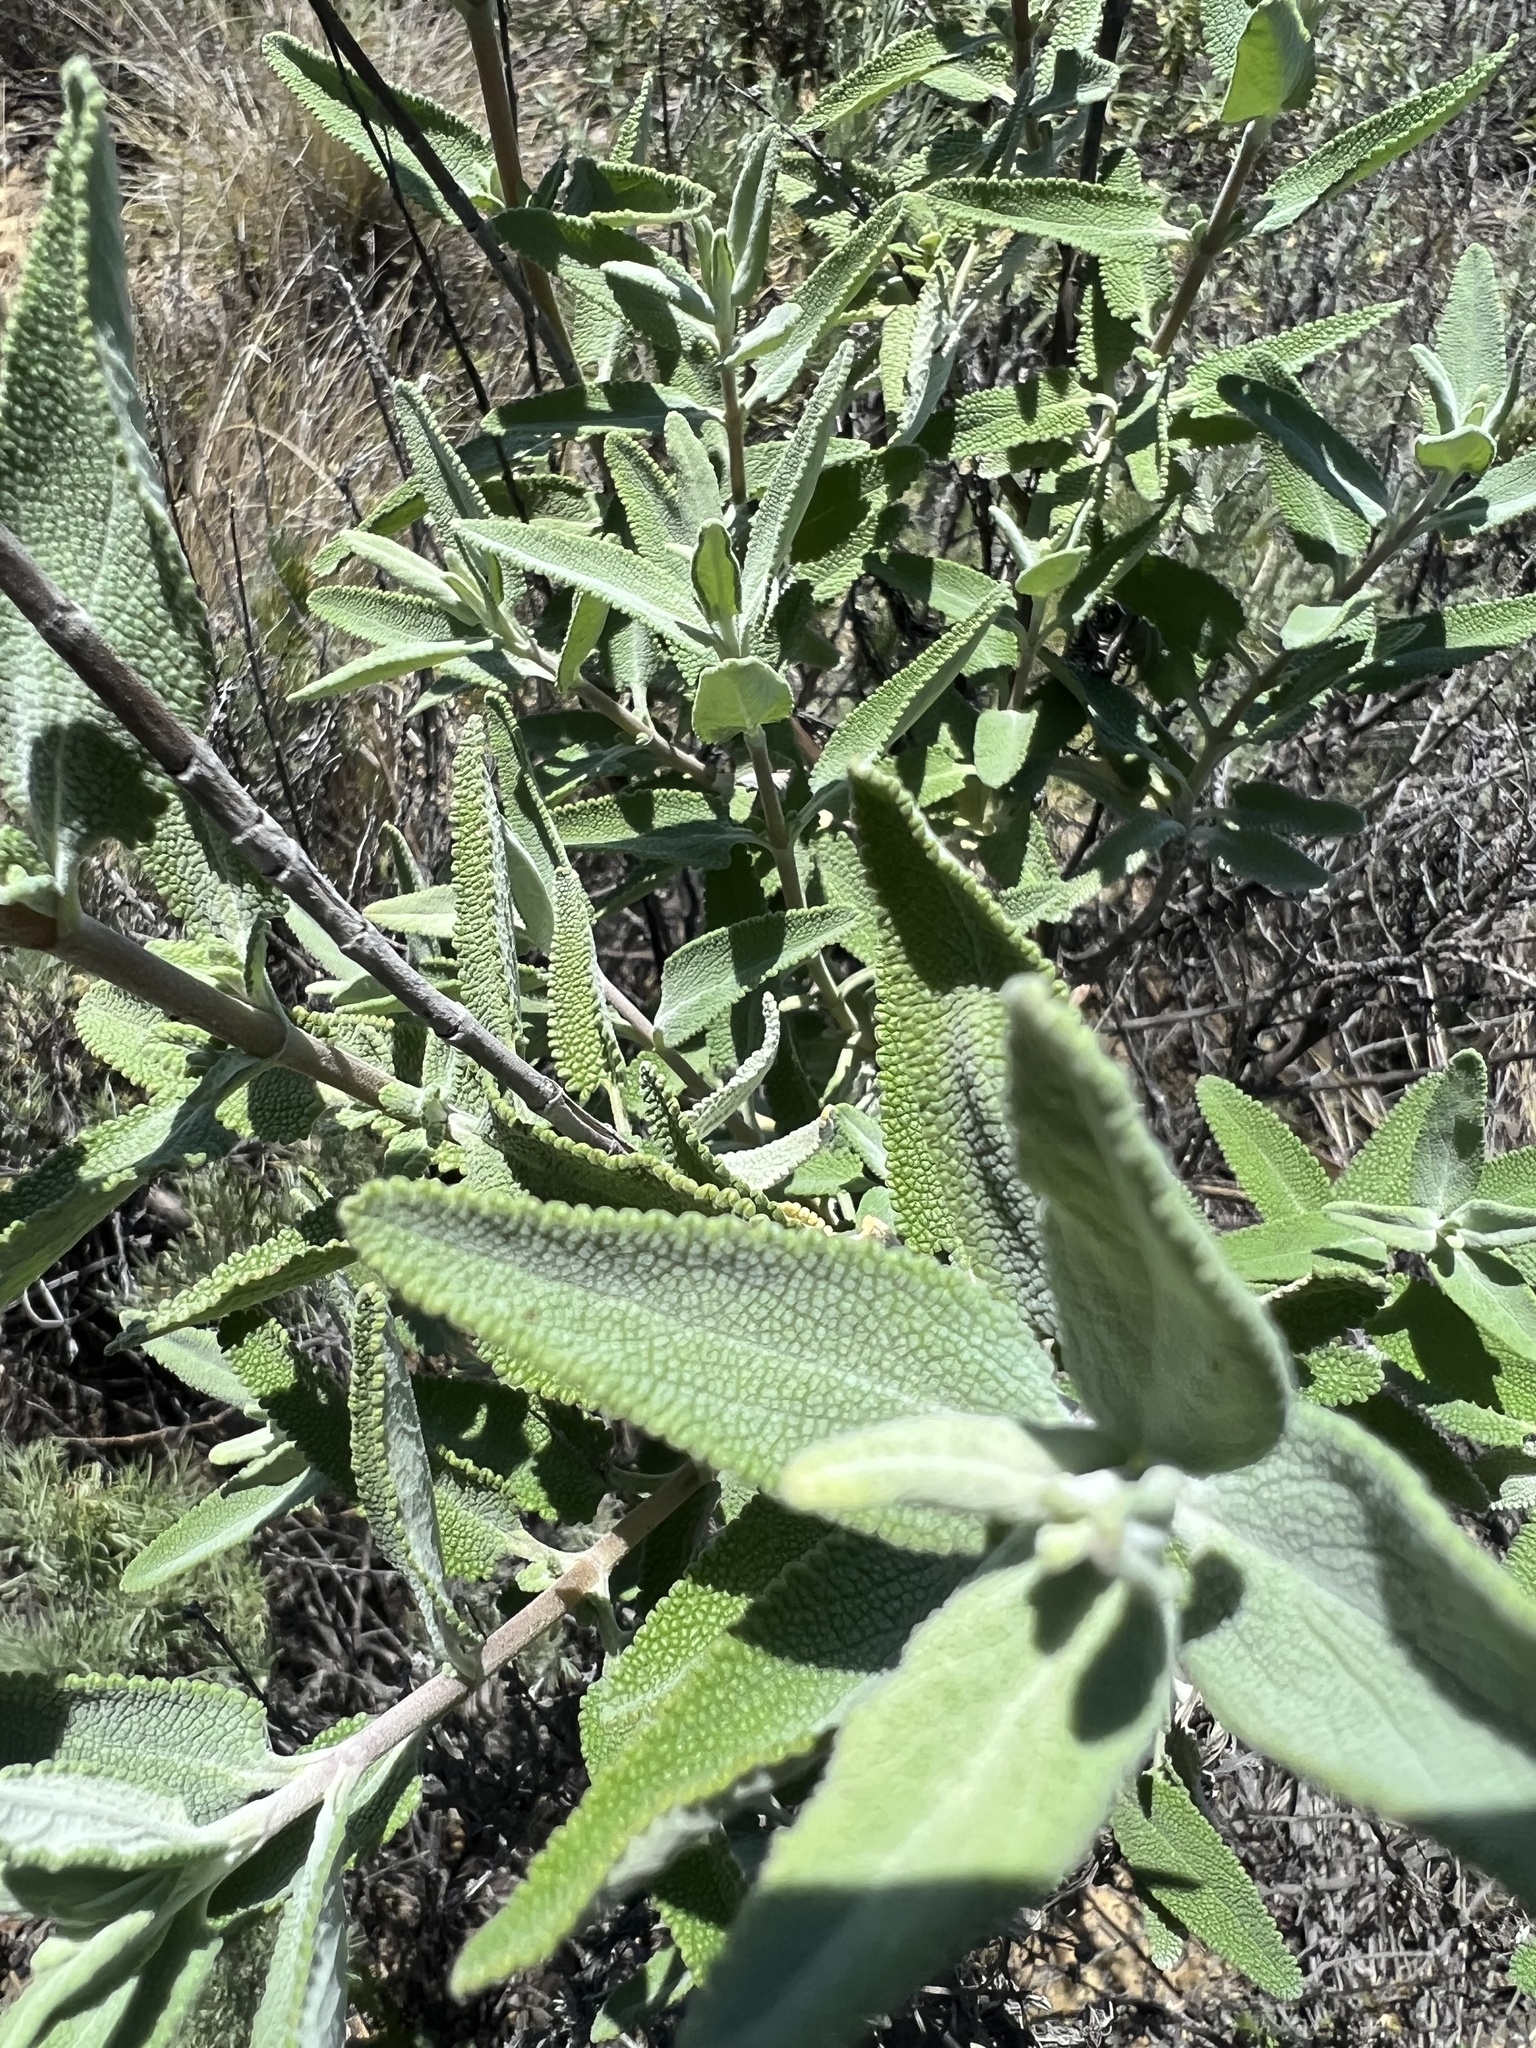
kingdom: Plantae
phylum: Tracheophyta
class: Magnoliopsida
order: Lamiales
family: Lamiaceae
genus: Salvia
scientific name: Salvia leucophylla
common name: Purple sage
